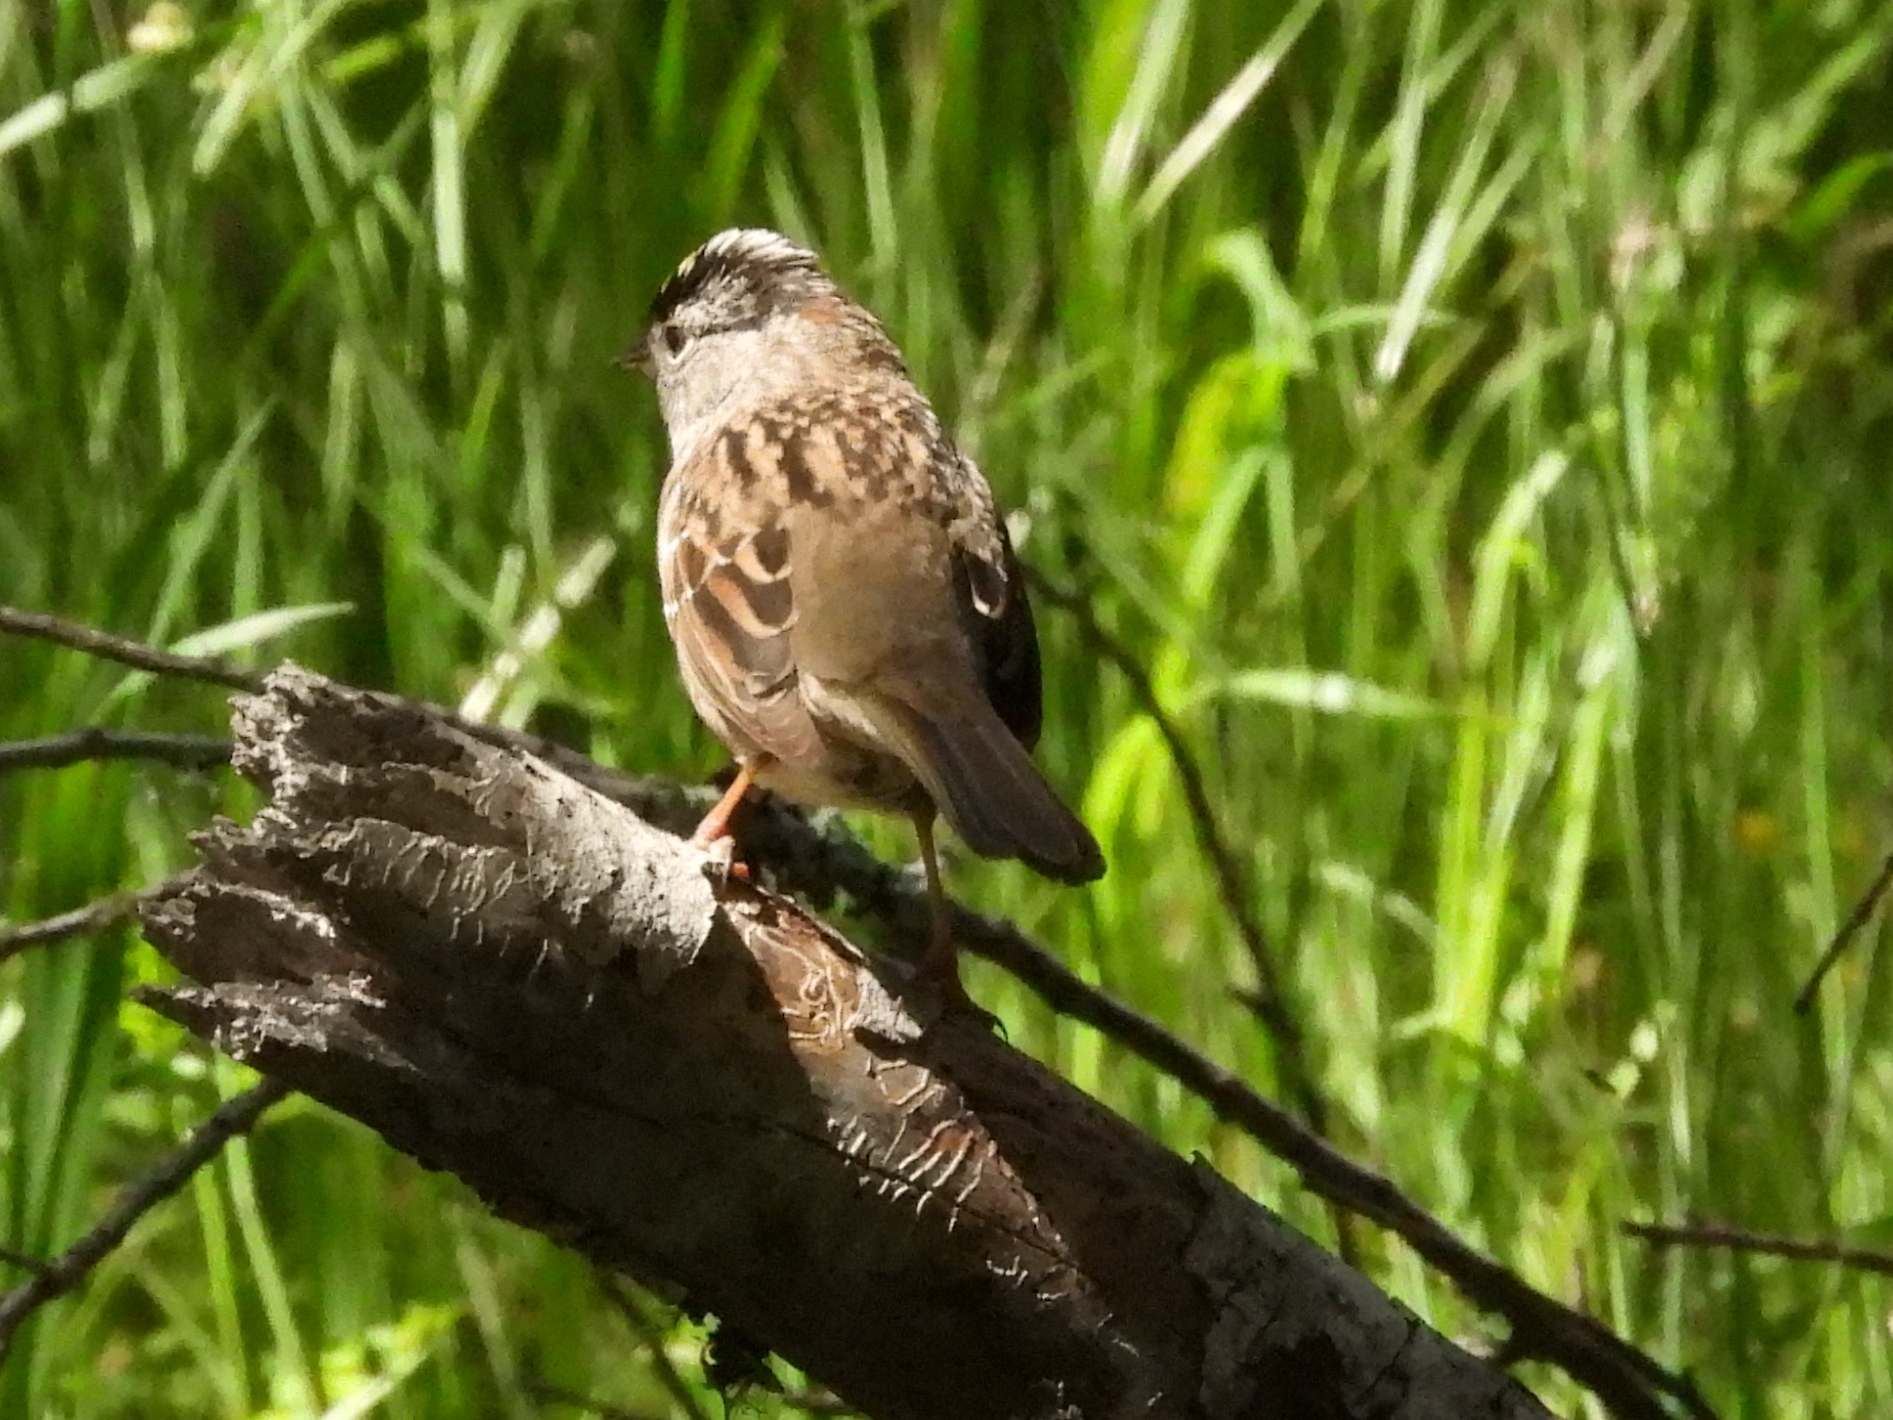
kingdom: Animalia
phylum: Chordata
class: Aves
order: Passeriformes
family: Passerellidae
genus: Zonotrichia
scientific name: Zonotrichia atricapilla
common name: Golden-crowned sparrow
